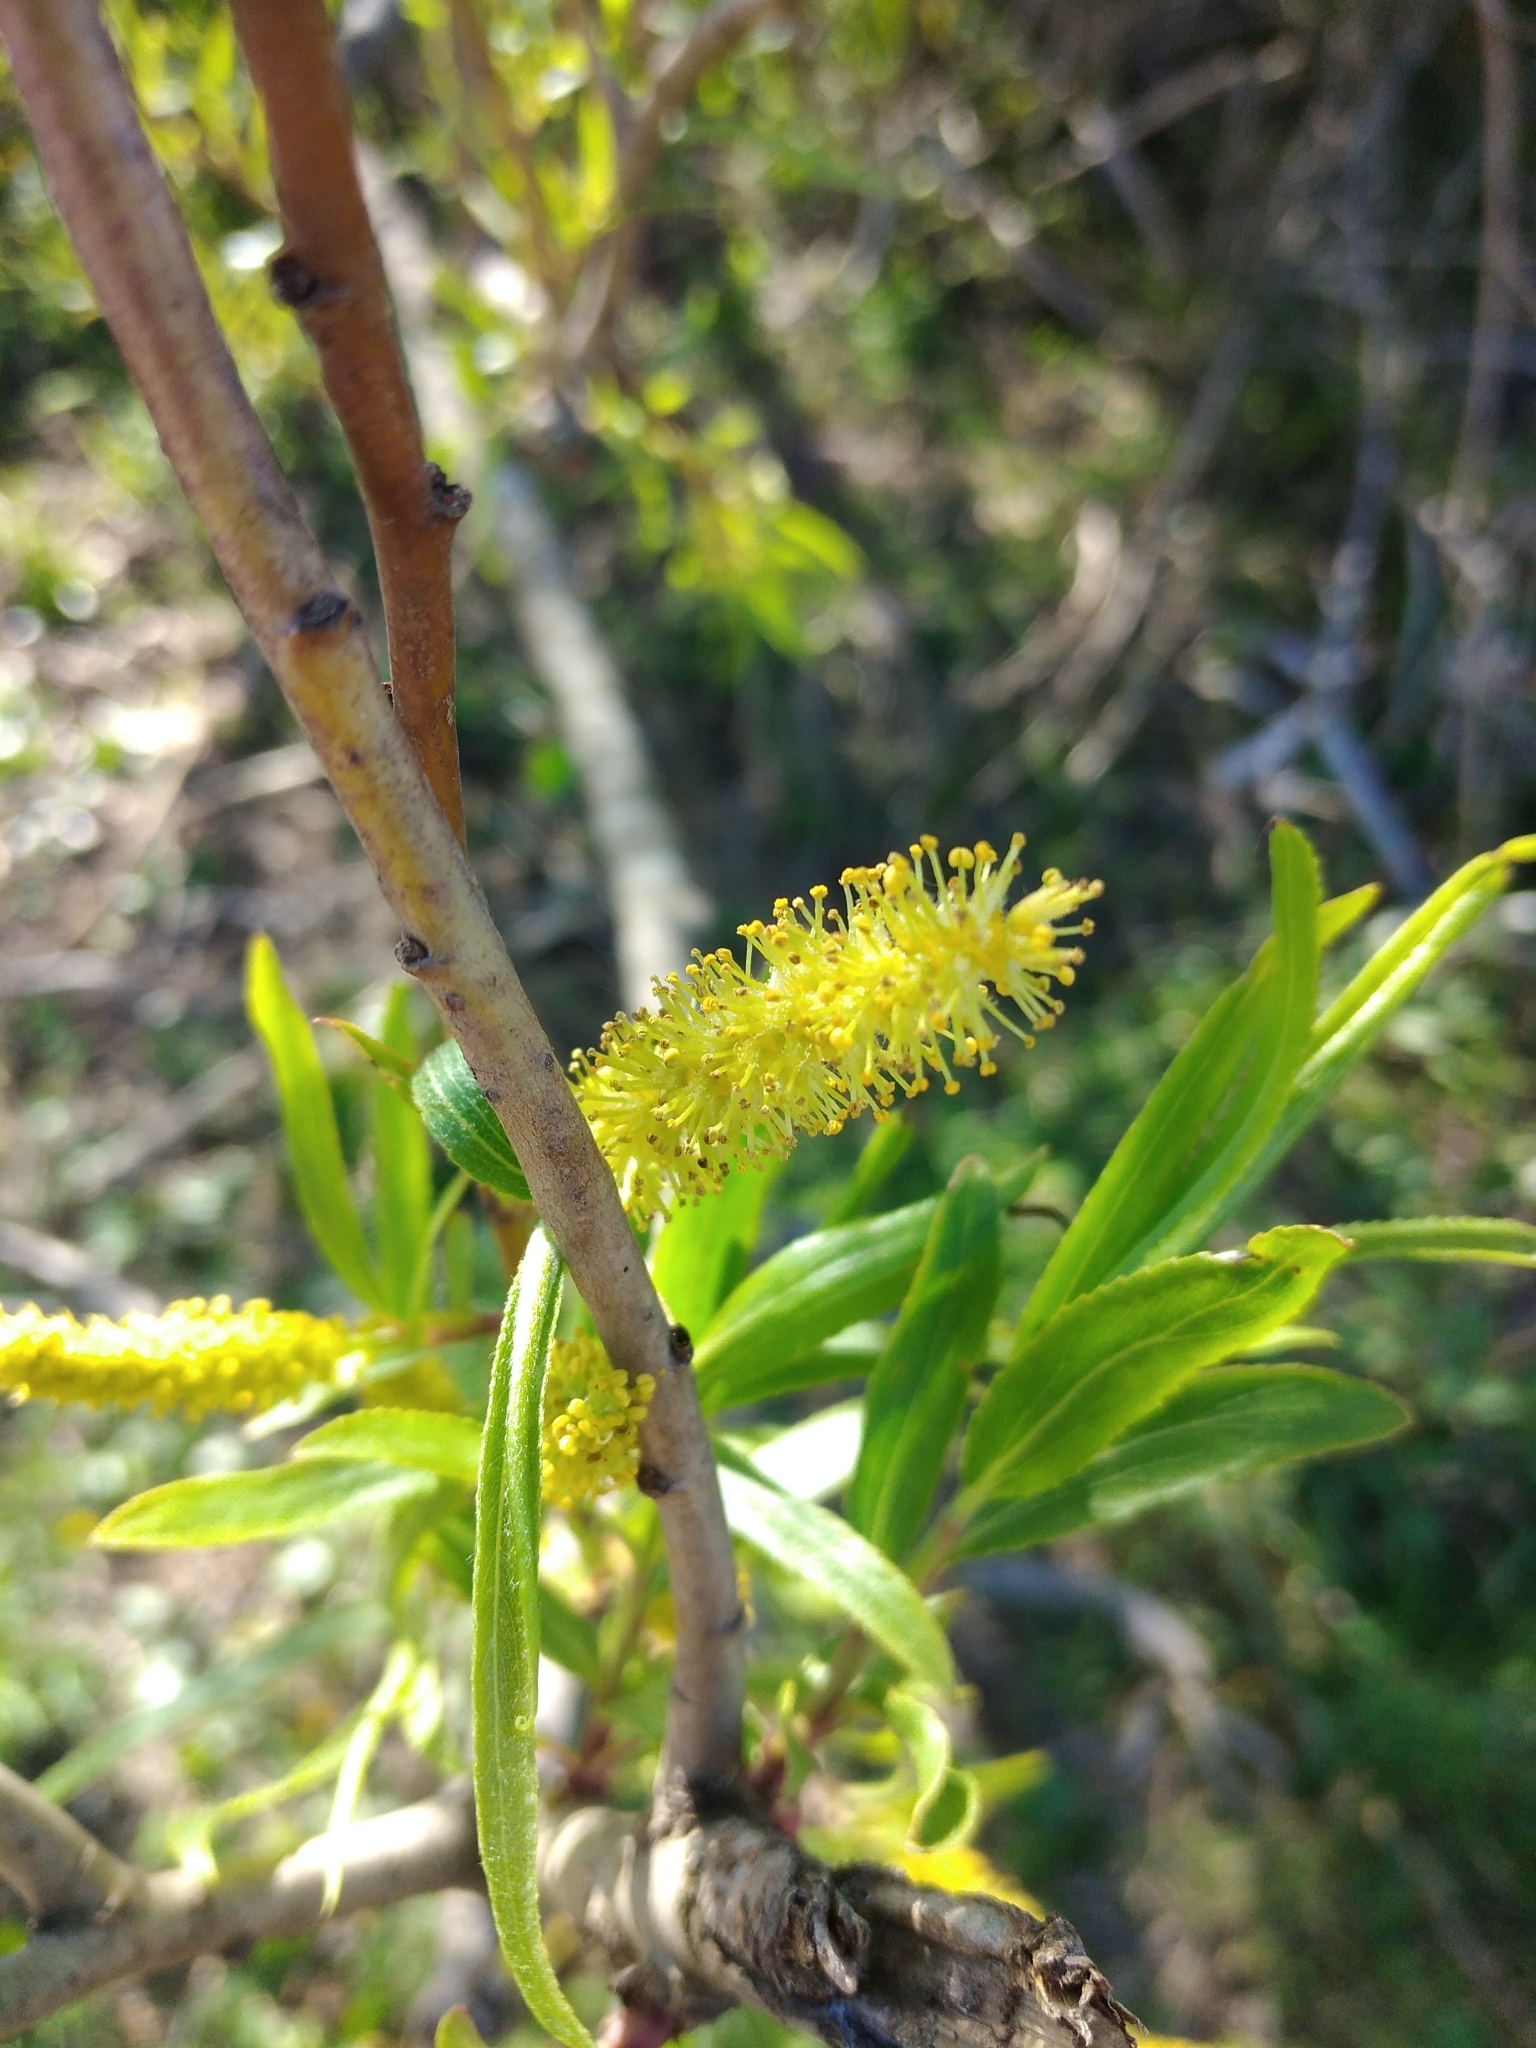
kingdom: Plantae
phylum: Tracheophyta
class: Magnoliopsida
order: Malpighiales
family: Salicaceae
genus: Salix
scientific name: Salix humboldtiana
